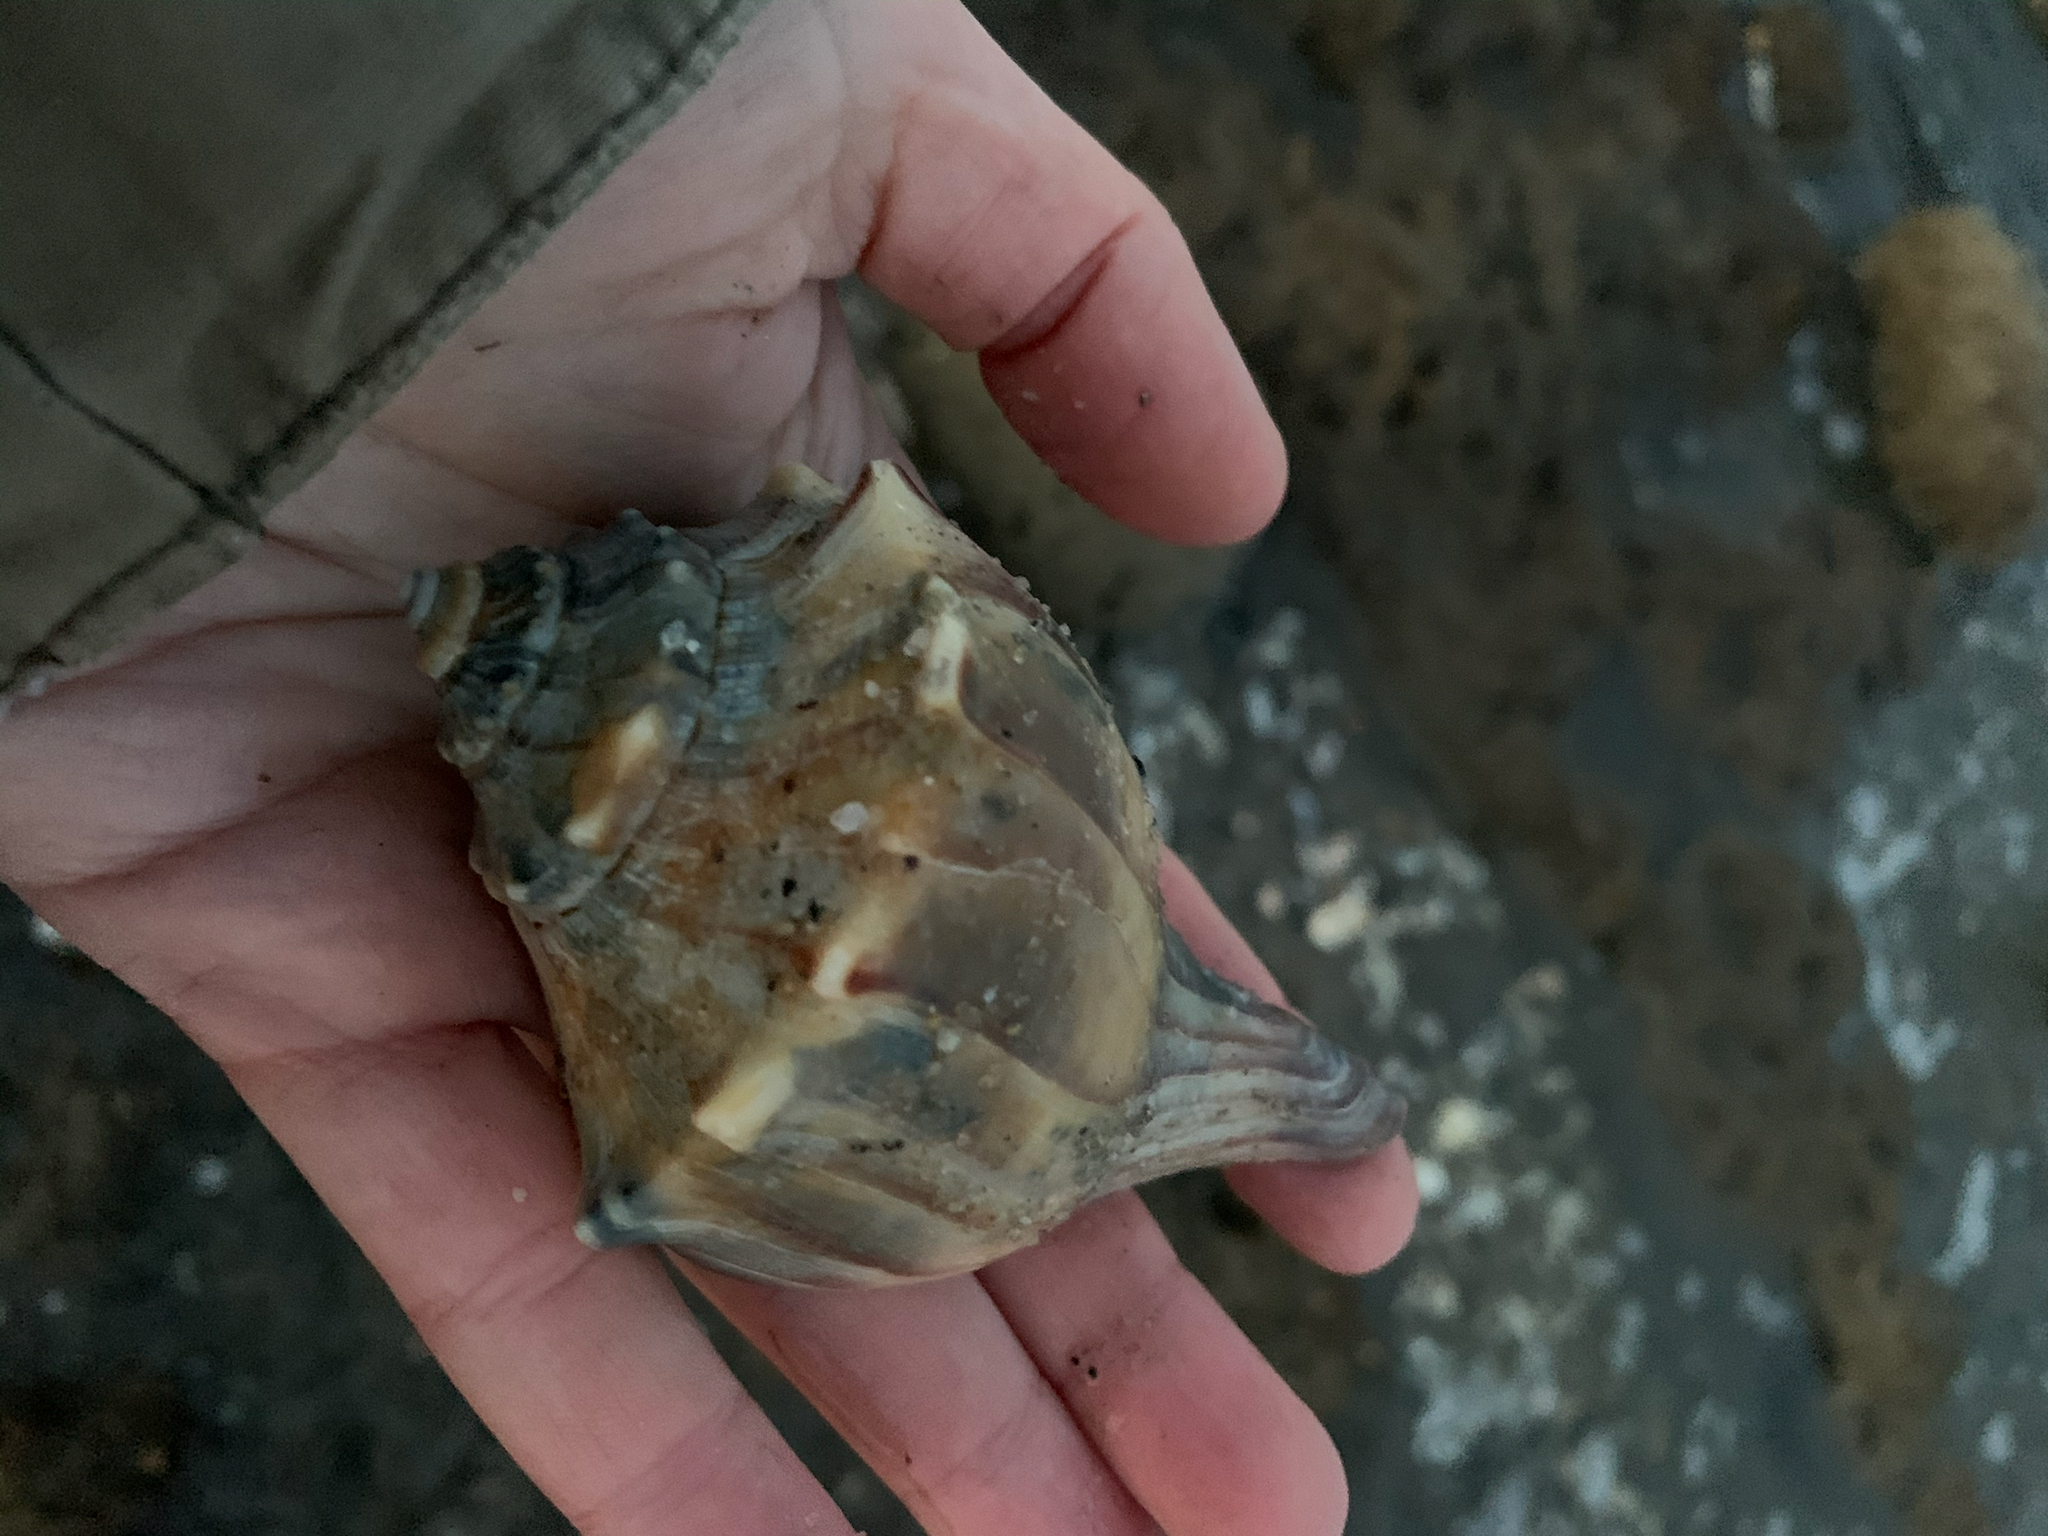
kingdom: Animalia
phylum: Mollusca
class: Gastropoda
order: Neogastropoda
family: Busyconidae
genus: Busycon
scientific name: Busycon carica
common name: Knobbed whelk
